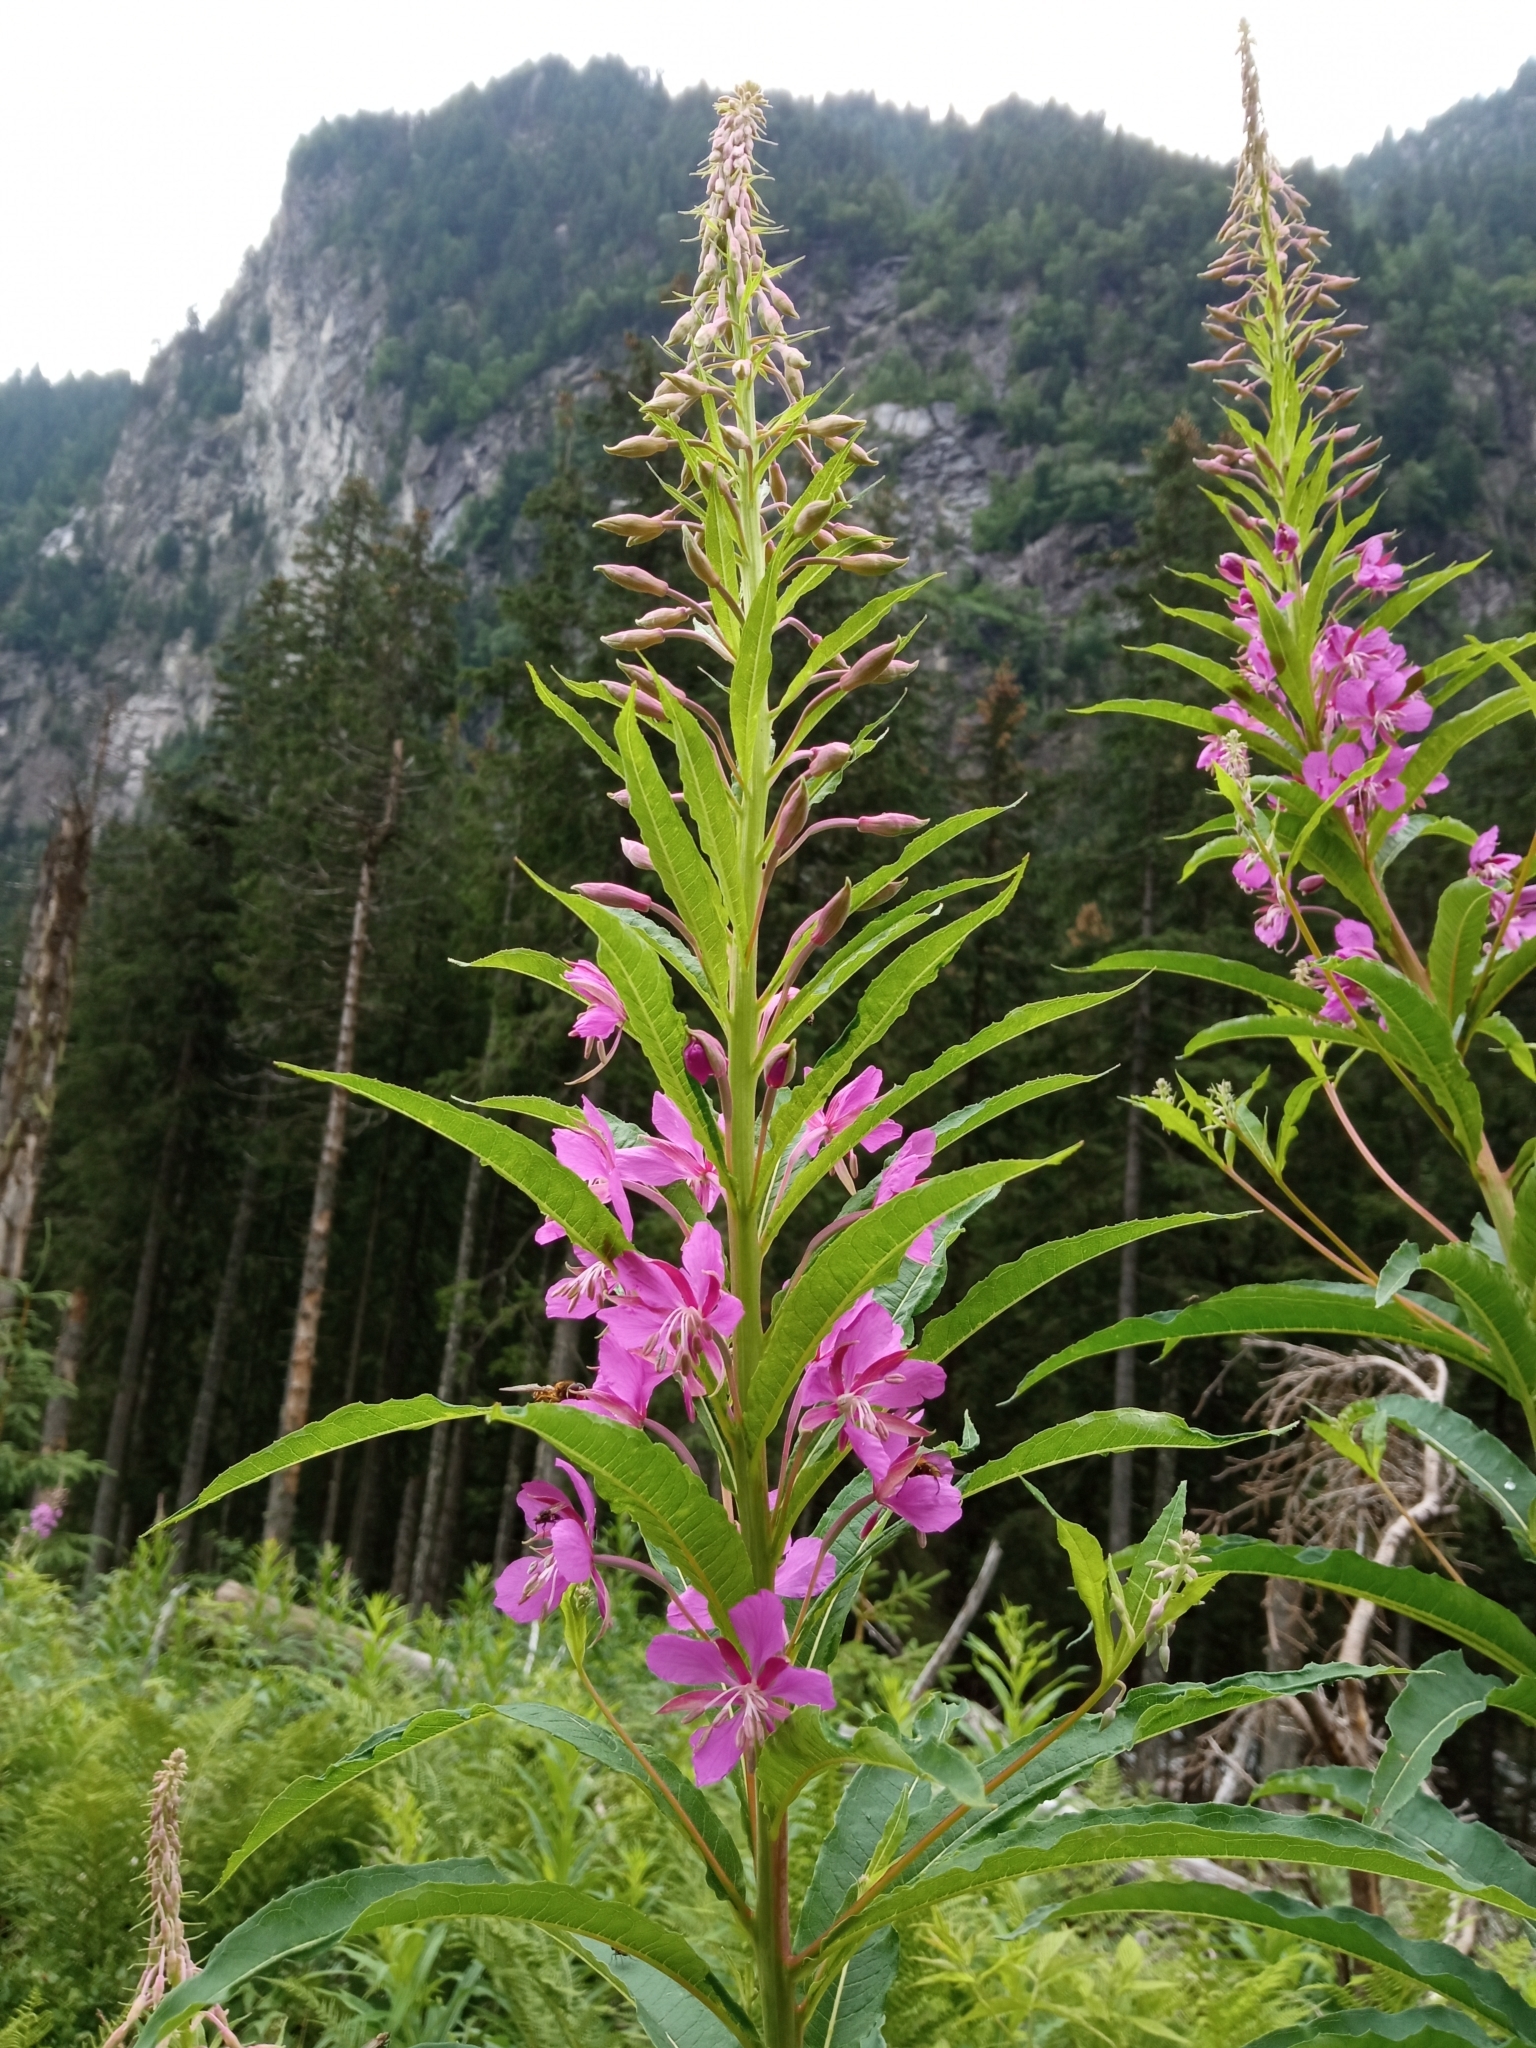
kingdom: Plantae
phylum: Tracheophyta
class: Magnoliopsida
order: Myrtales
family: Onagraceae
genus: Chamaenerion
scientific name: Chamaenerion angustifolium
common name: Fireweed
